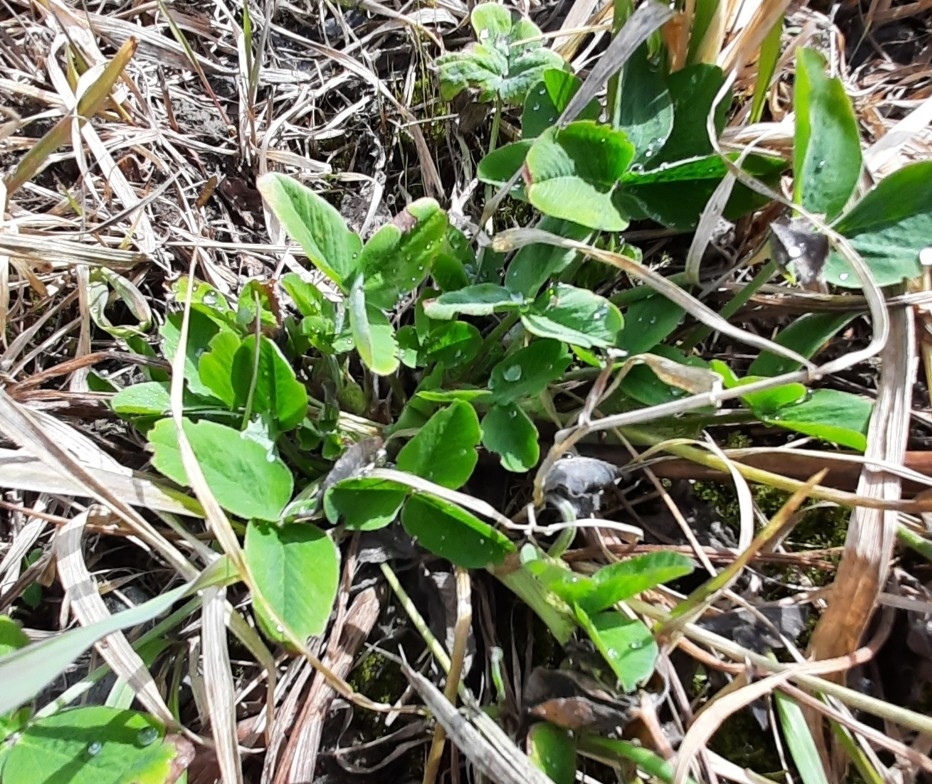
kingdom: Plantae
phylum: Tracheophyta
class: Magnoliopsida
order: Fabales
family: Fabaceae
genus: Trifolium
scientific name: Trifolium pratense
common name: Red clover
